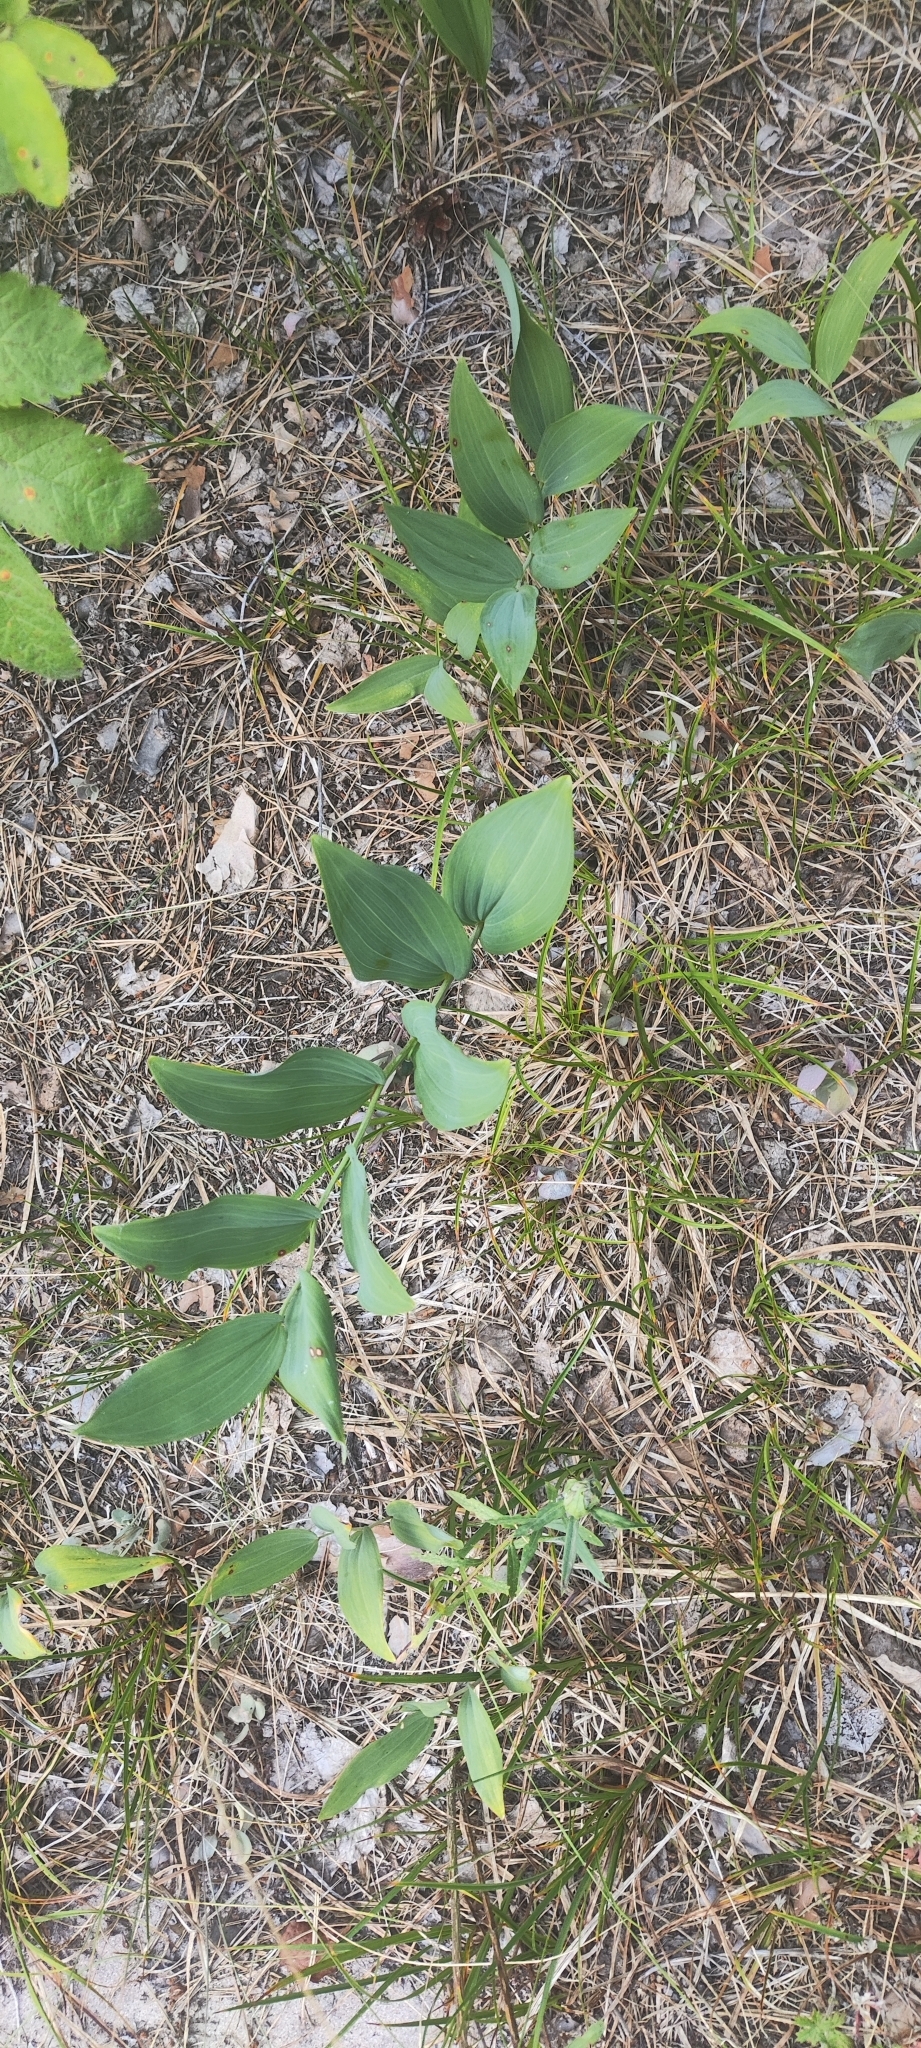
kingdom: Plantae
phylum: Tracheophyta
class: Liliopsida
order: Asparagales
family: Asparagaceae
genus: Polygonatum
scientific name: Polygonatum odoratum
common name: Angular solomon's-seal
